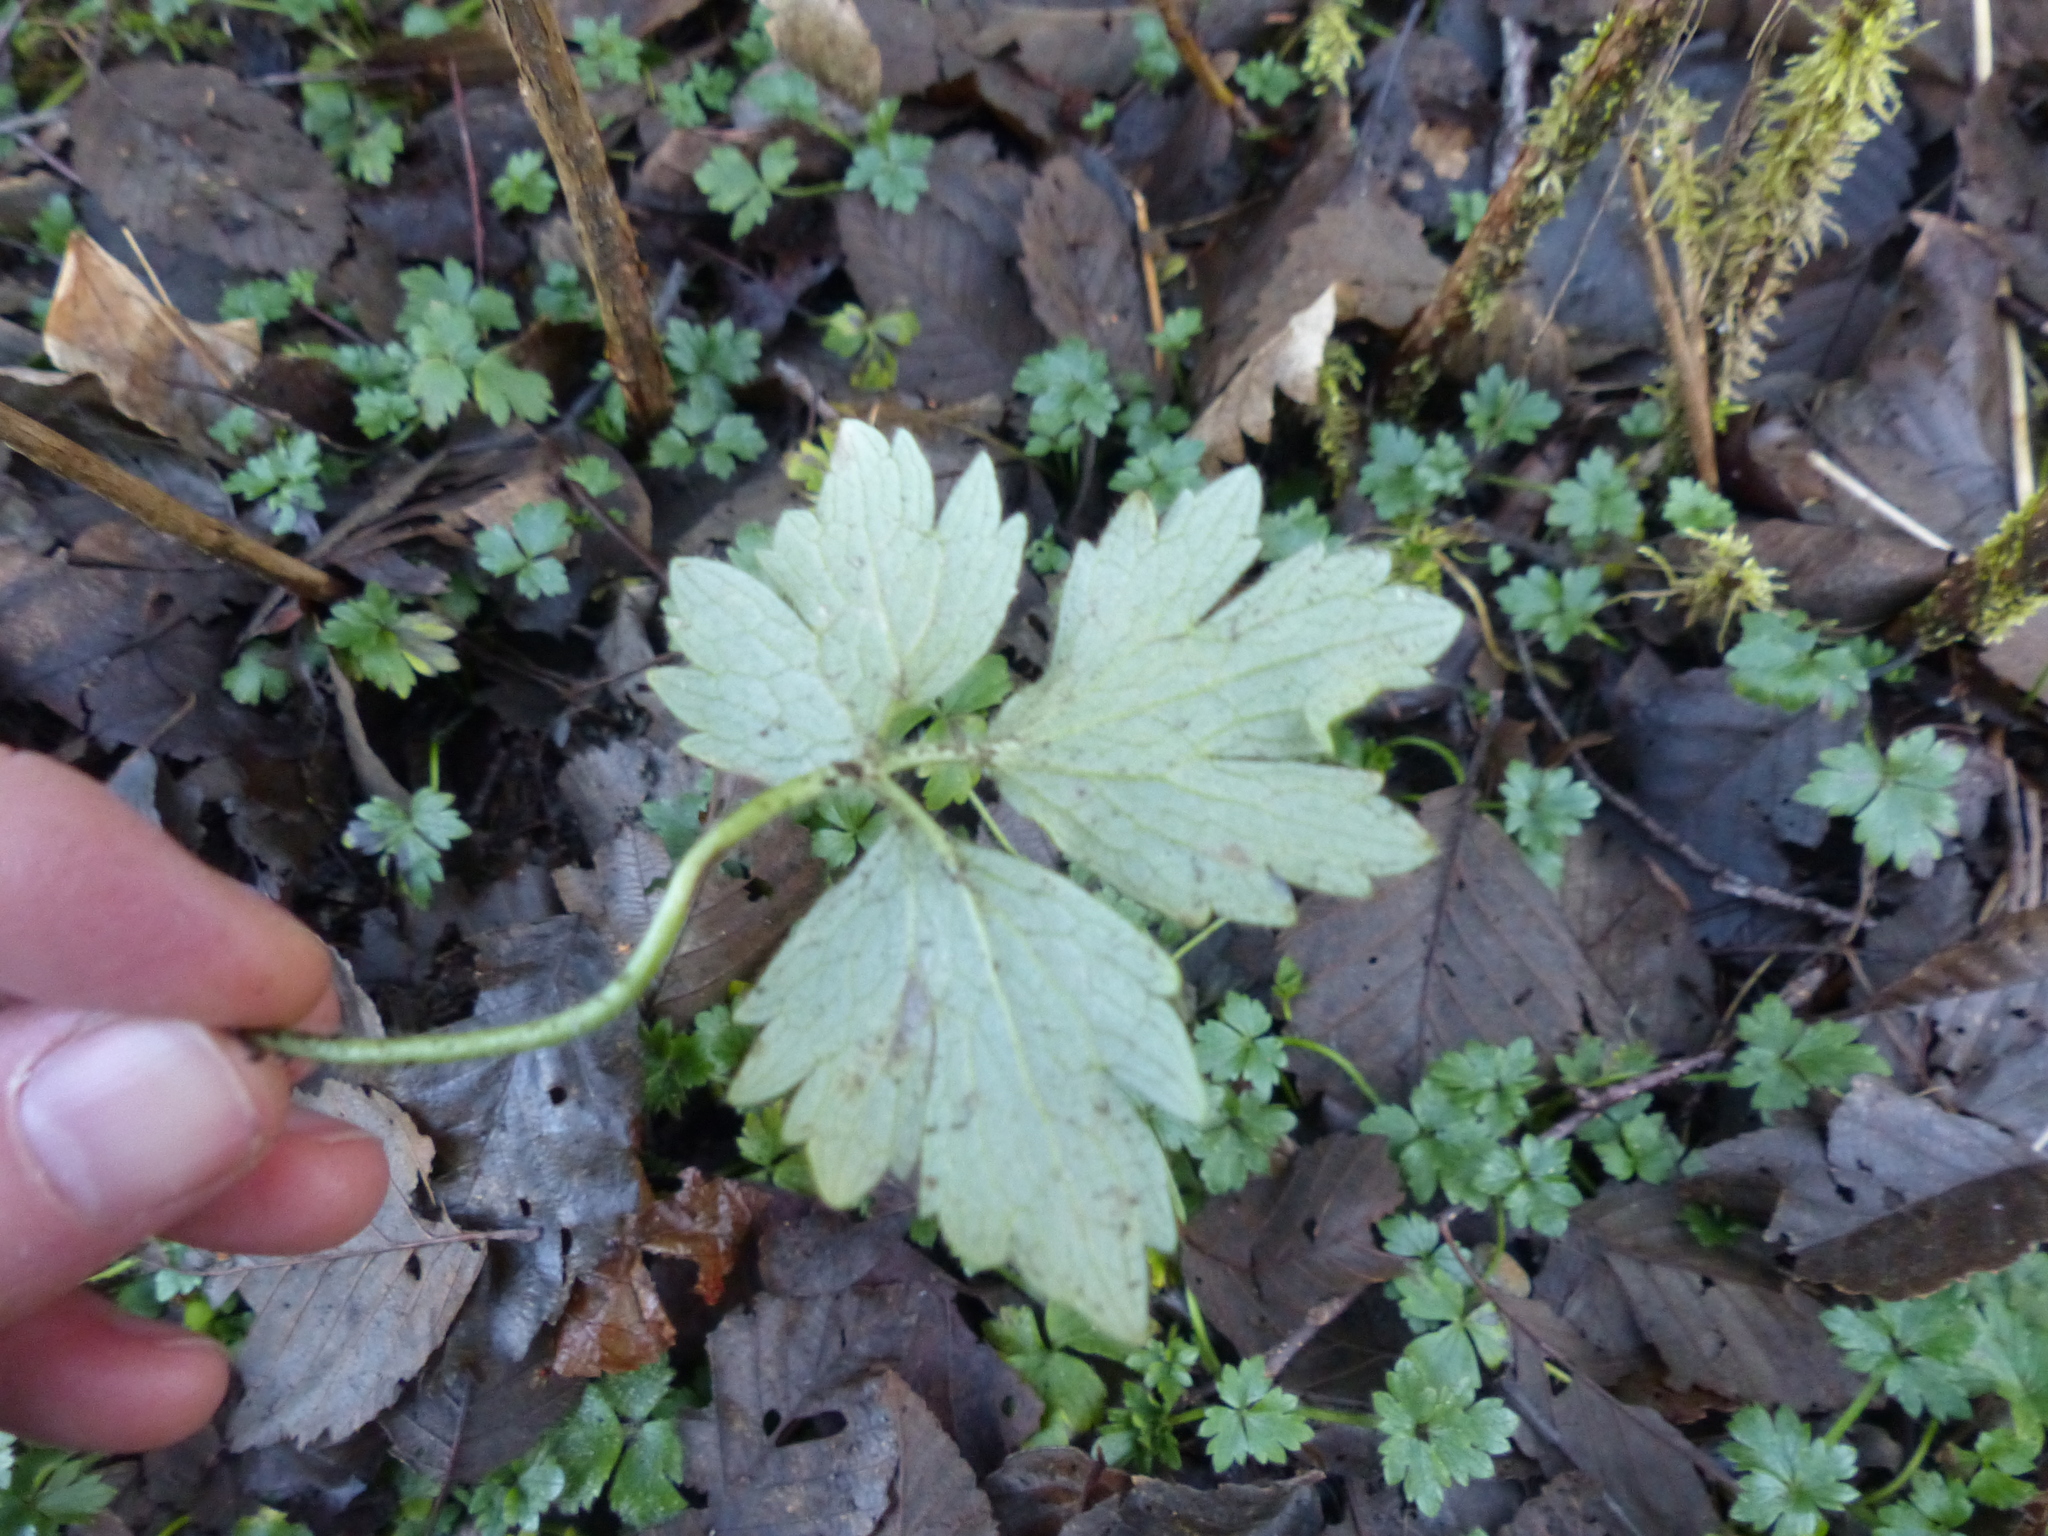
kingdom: Plantae
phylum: Tracheophyta
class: Magnoliopsida
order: Ranunculales
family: Ranunculaceae
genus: Ranunculus
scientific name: Ranunculus repens
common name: Creeping buttercup
